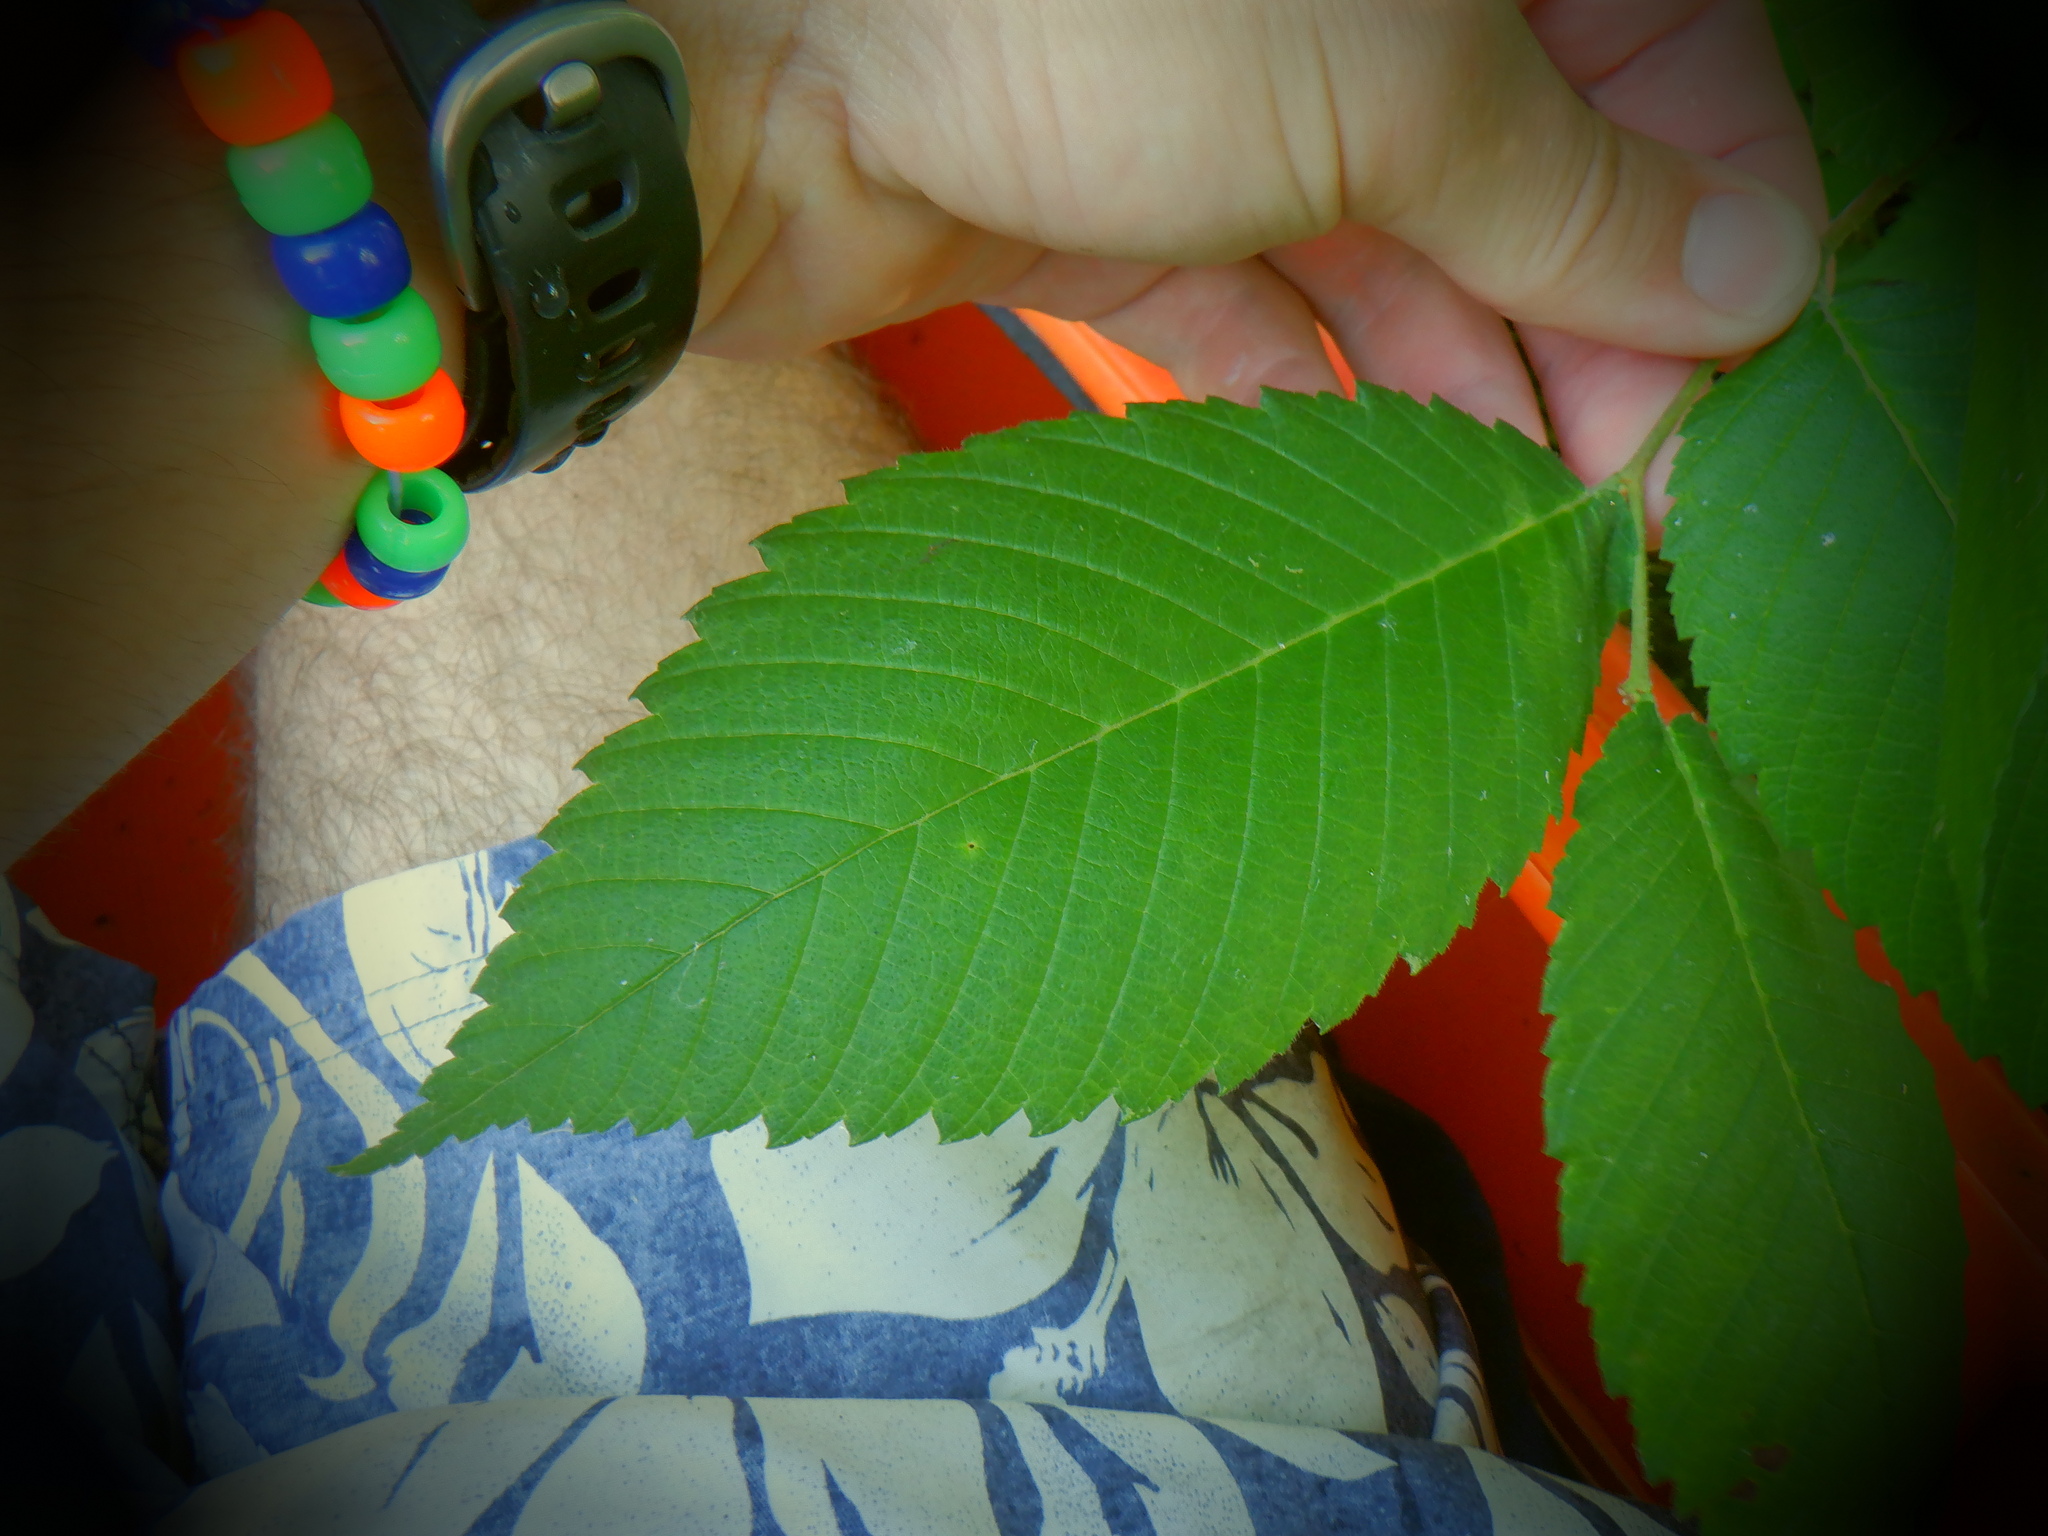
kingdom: Plantae
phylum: Tracheophyta
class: Magnoliopsida
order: Rosales
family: Ulmaceae
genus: Ulmus
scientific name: Ulmus americana
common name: American elm
